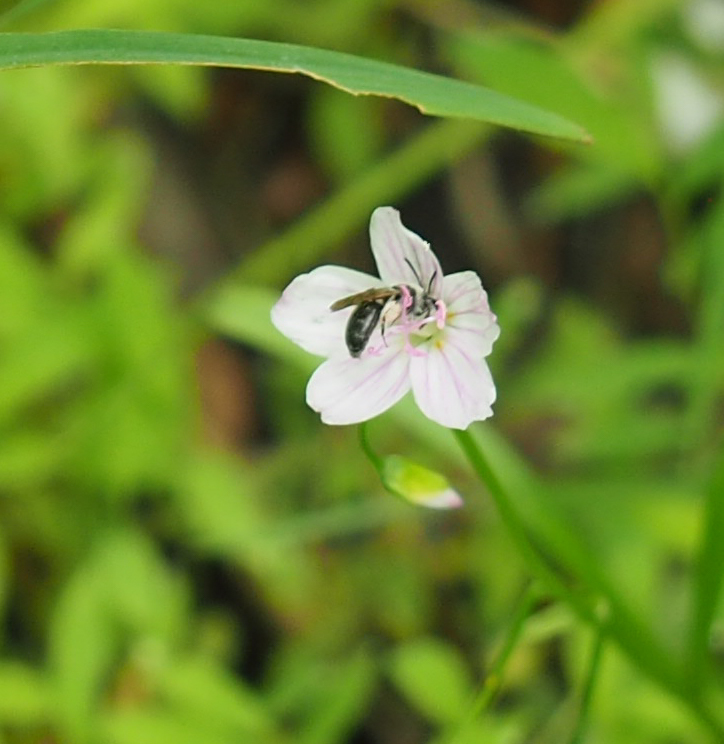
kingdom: Animalia
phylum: Arthropoda
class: Insecta
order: Hymenoptera
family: Andrenidae
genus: Andrena
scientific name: Andrena erigeniae
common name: Spring beauty miner
